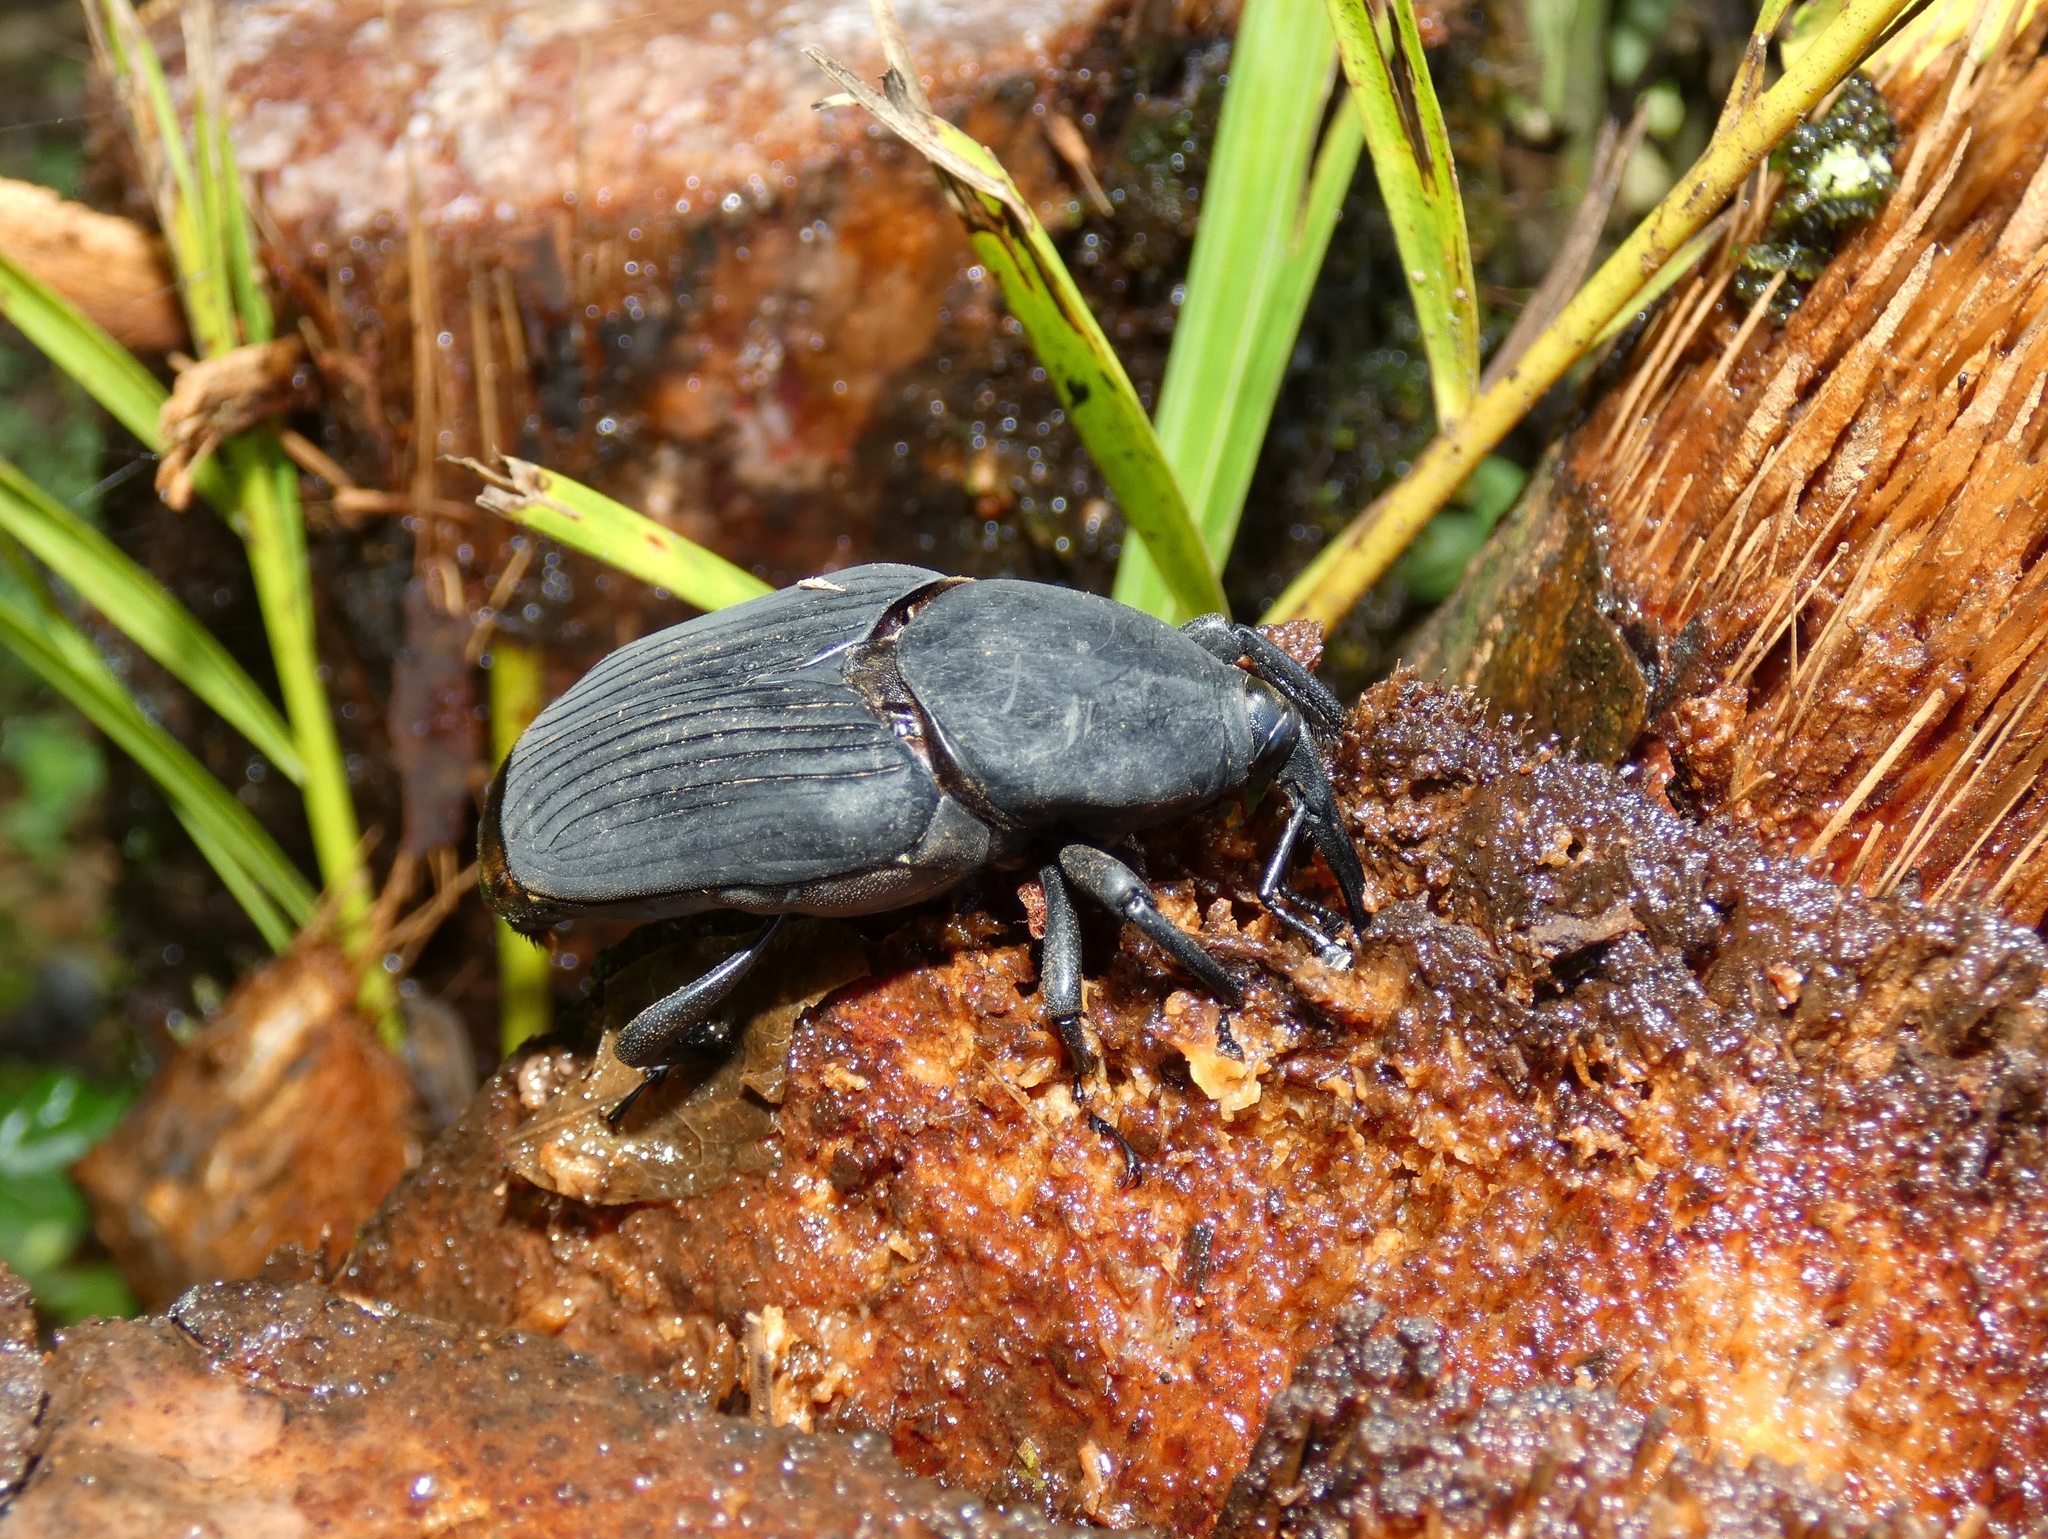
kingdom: Animalia
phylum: Arthropoda
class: Insecta
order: Coleoptera
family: Dryophthoridae
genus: Rhynchophorus
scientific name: Rhynchophorus palmarum
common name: Palm weevil
